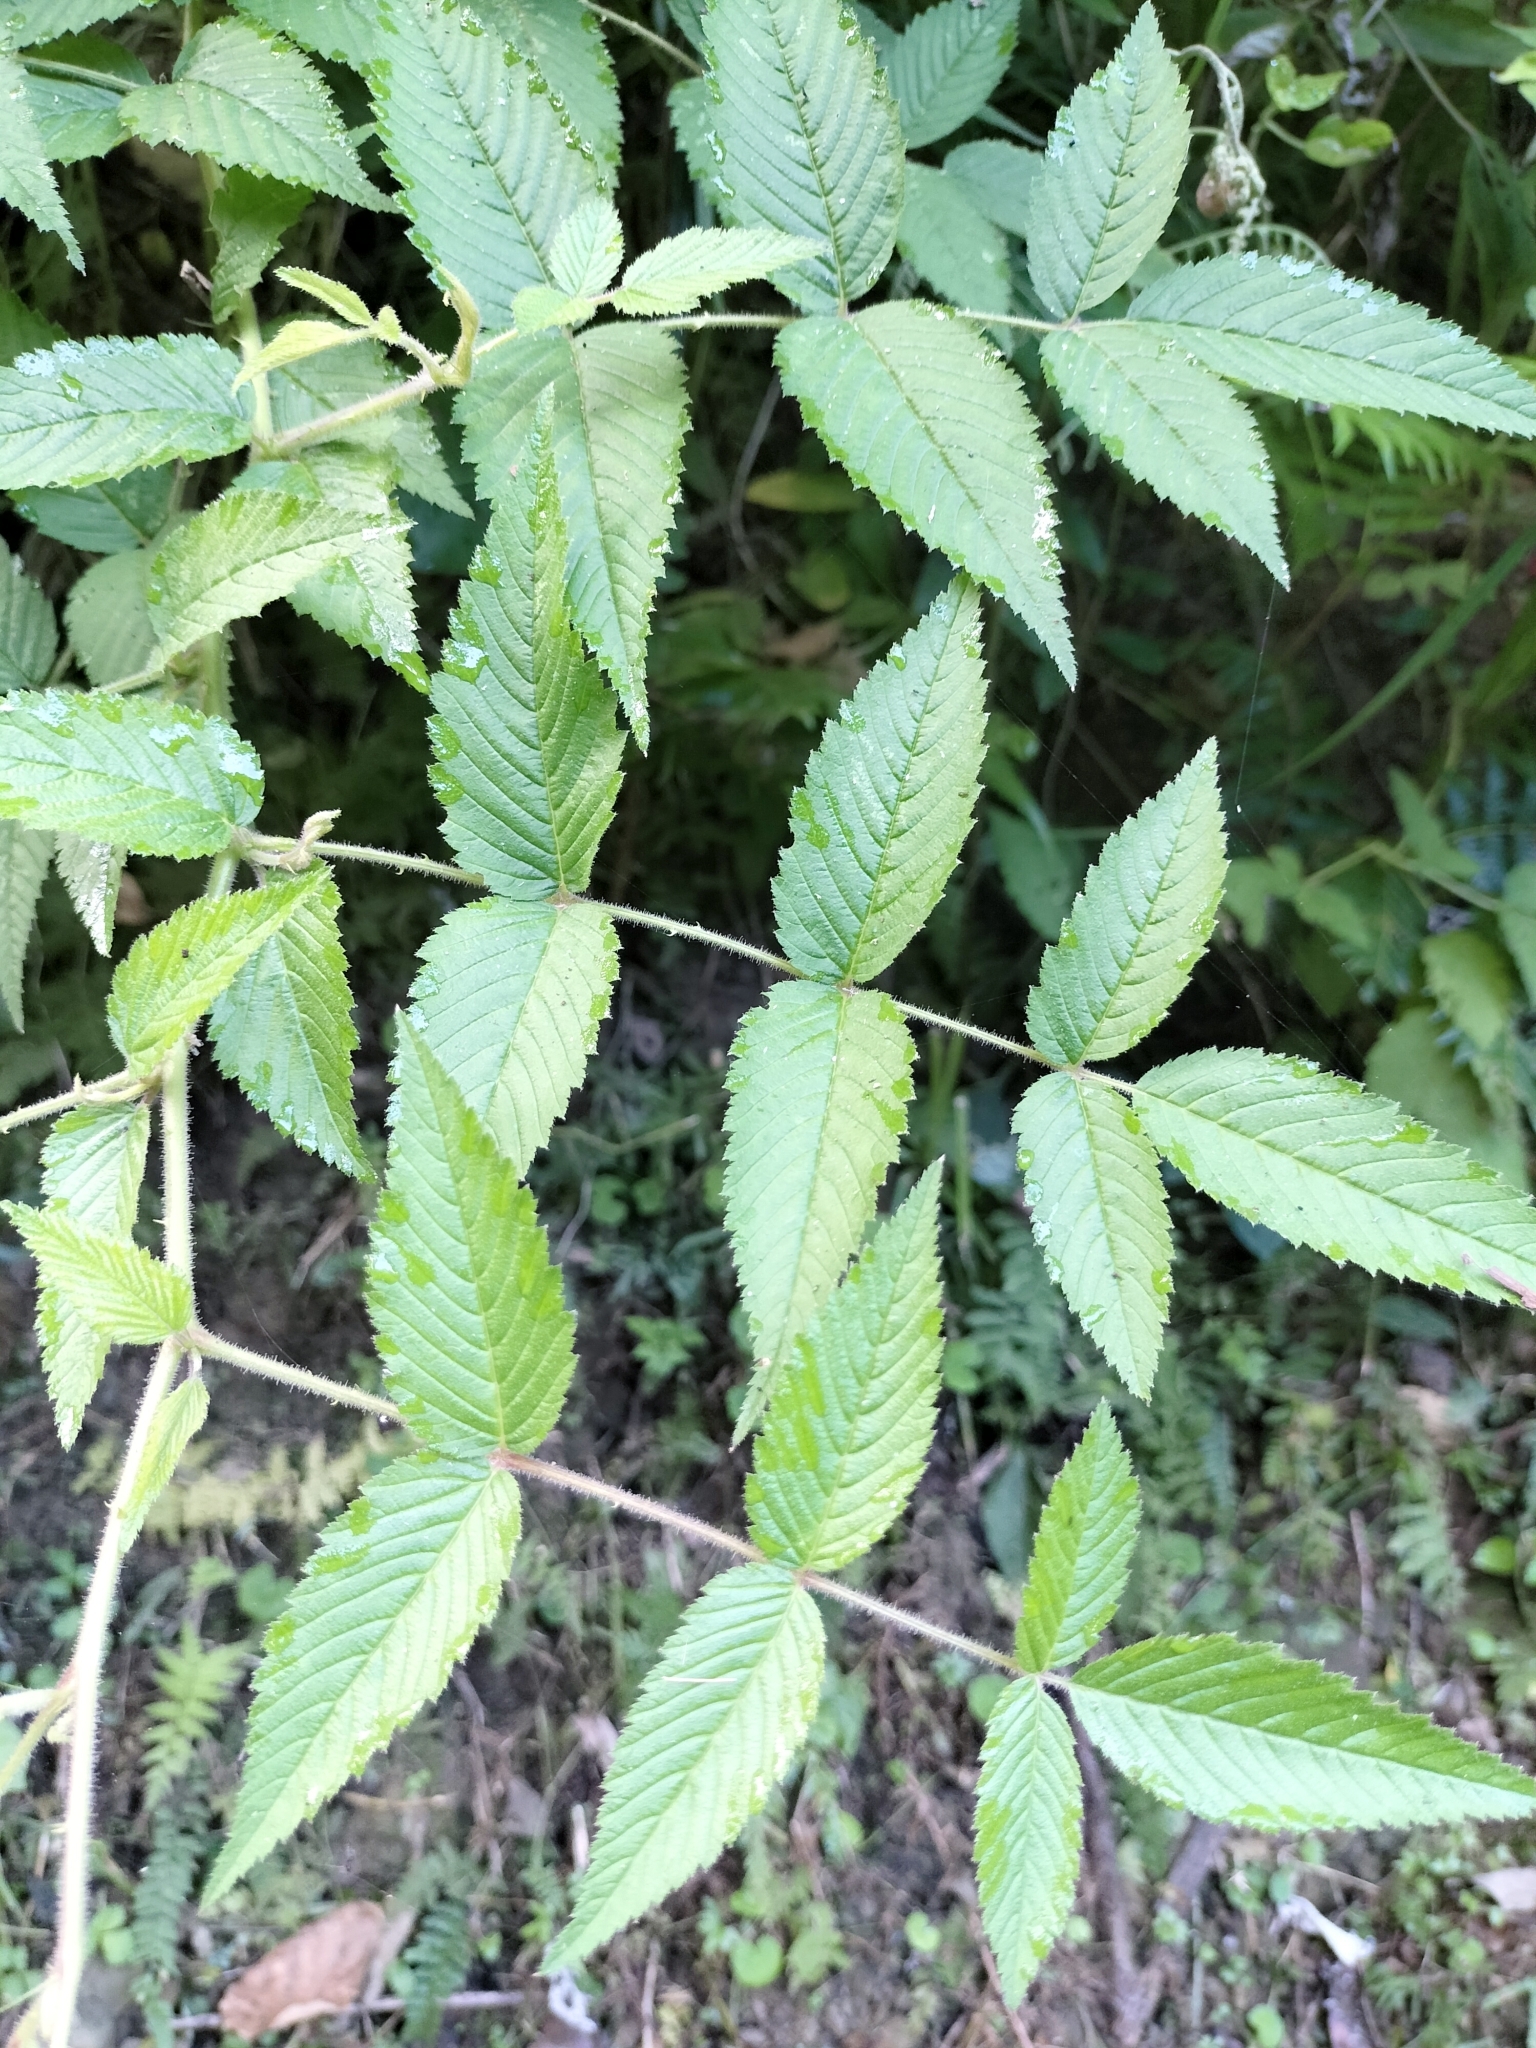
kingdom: Plantae
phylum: Tracheophyta
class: Magnoliopsida
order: Rosales
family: Rosaceae
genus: Rubus
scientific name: Rubus croceacanthus
